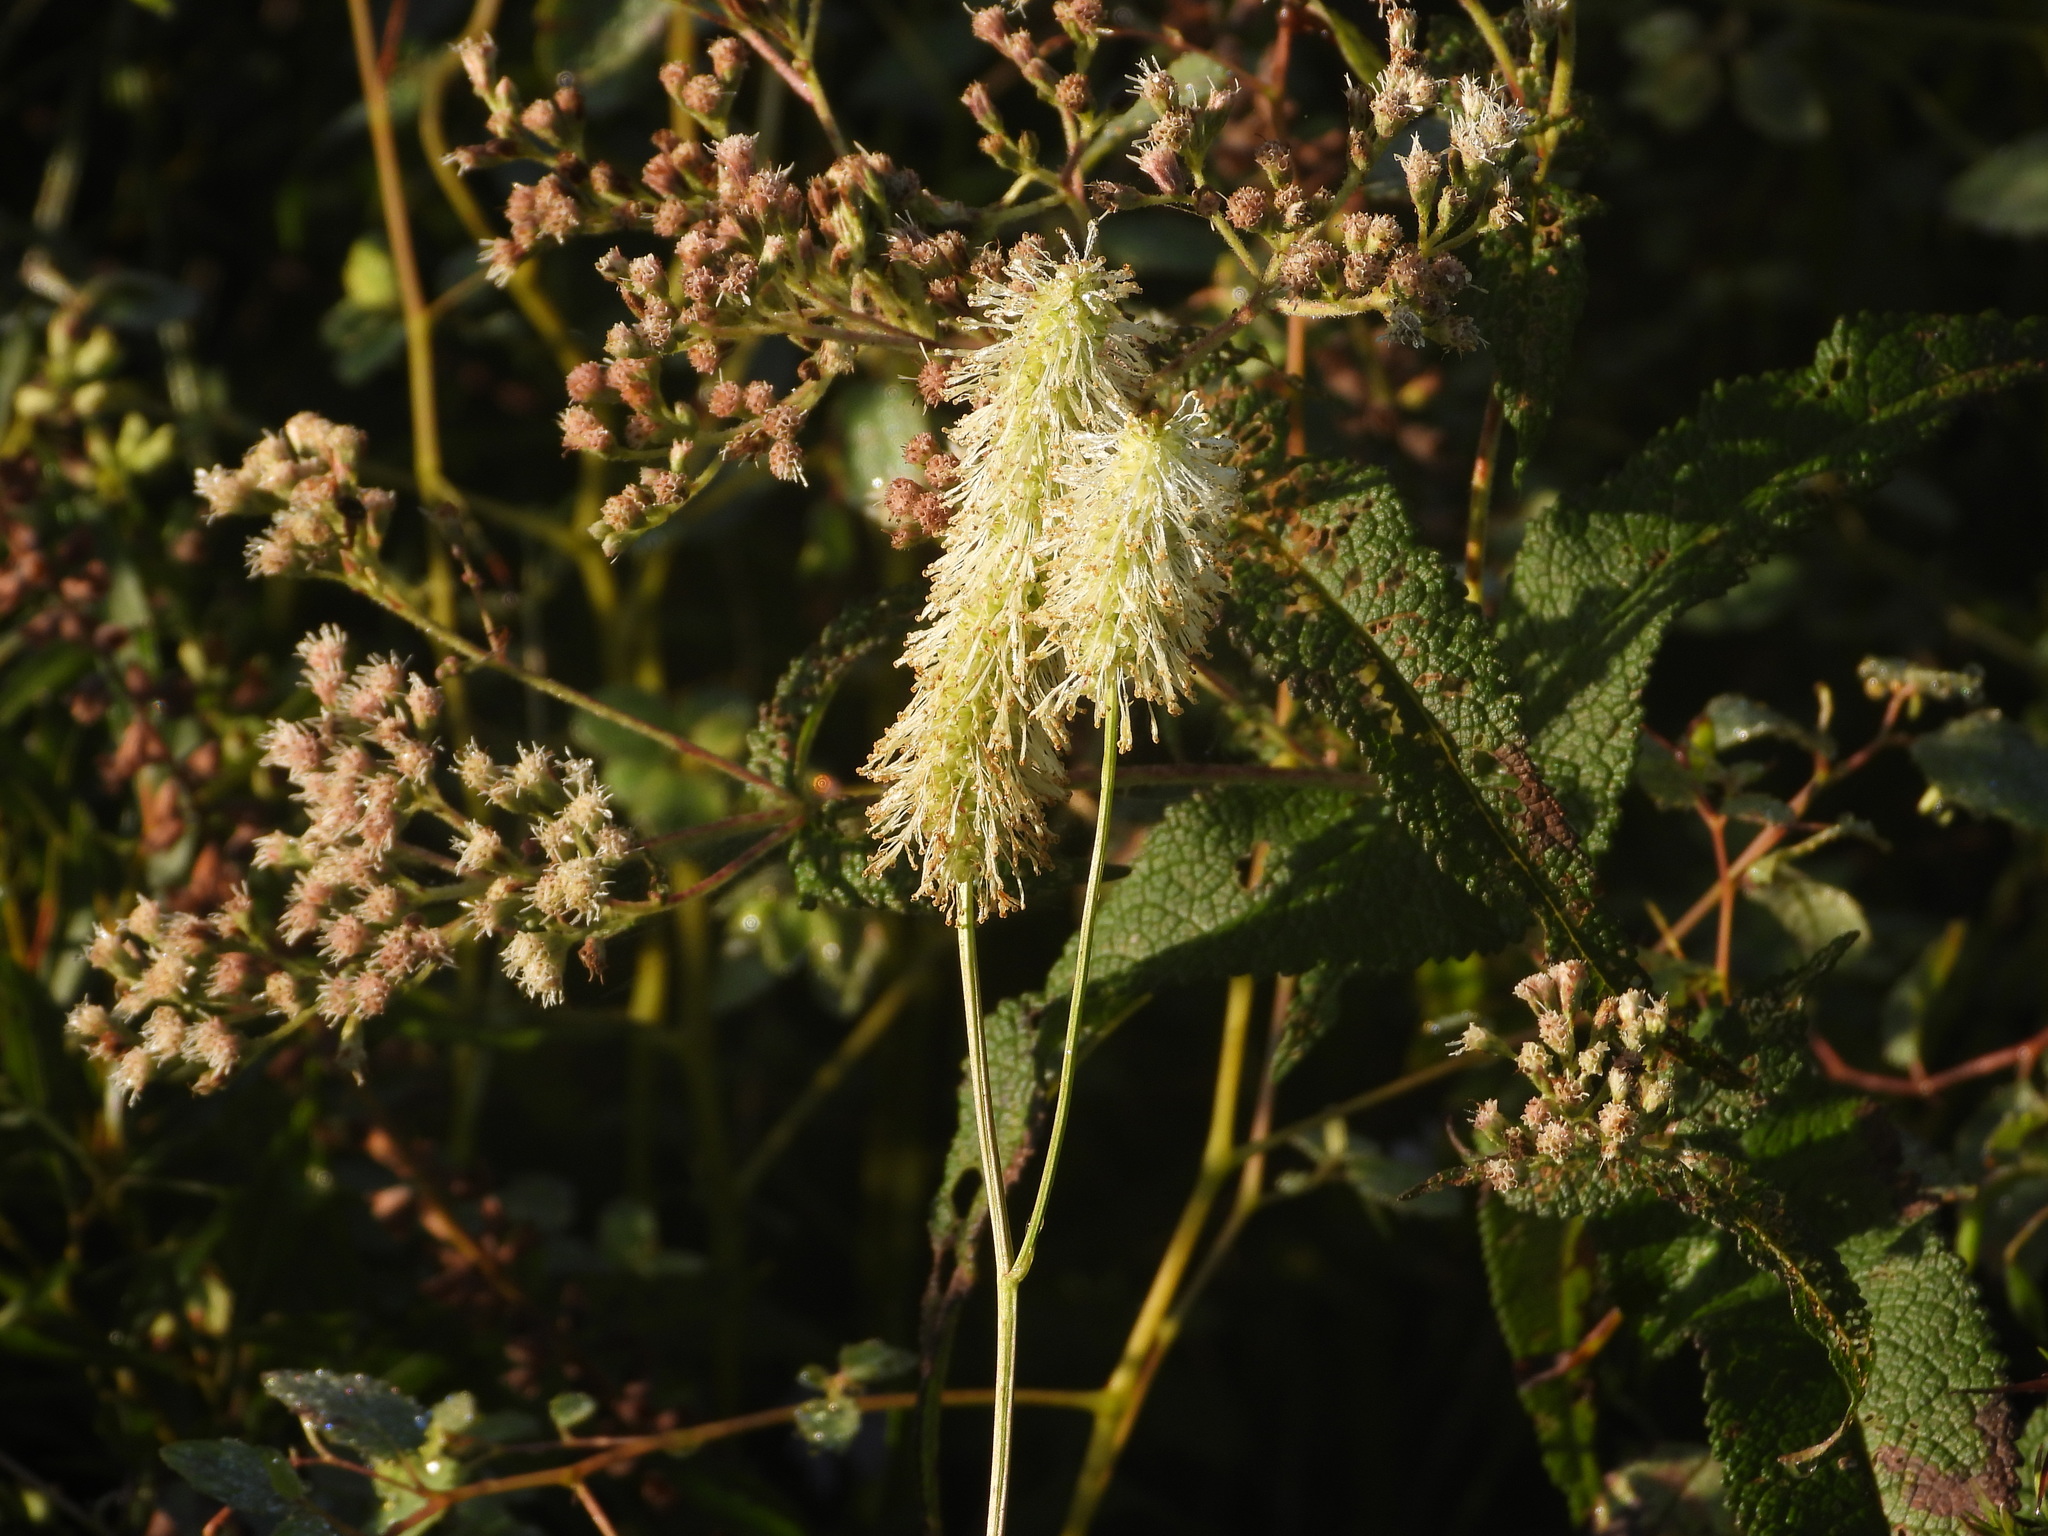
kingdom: Plantae
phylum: Tracheophyta
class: Magnoliopsida
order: Rosales
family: Rosaceae
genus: Sanguisorba
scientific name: Sanguisorba canadensis
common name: White burnet
